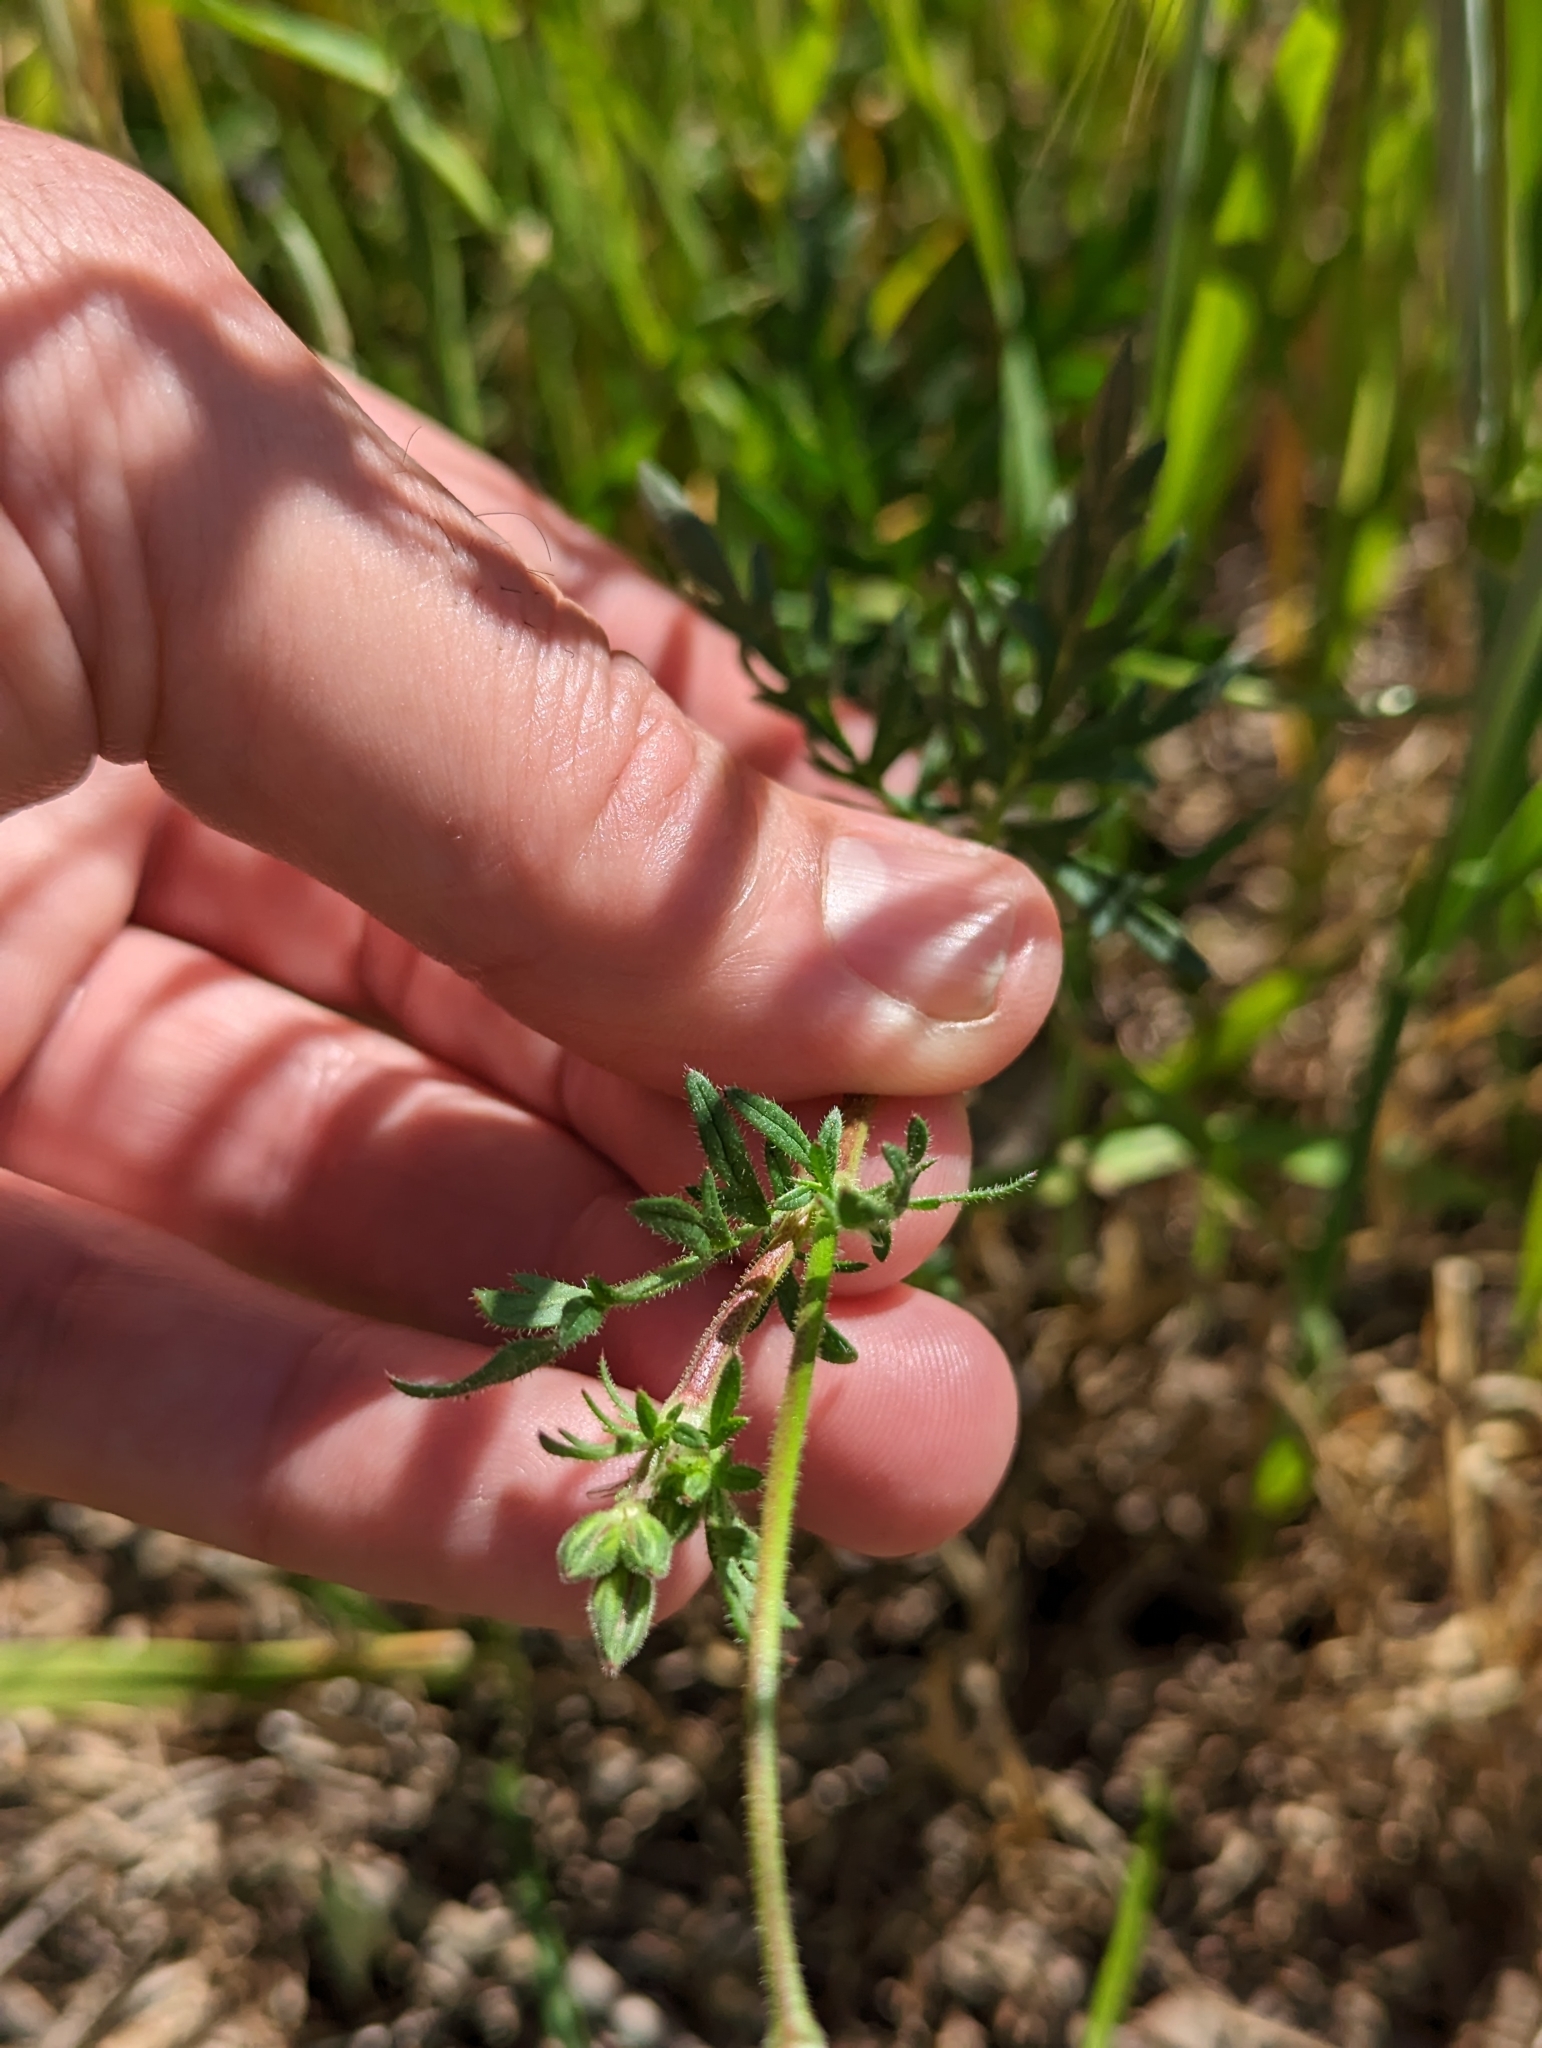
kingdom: Plantae
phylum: Tracheophyta
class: Magnoliopsida
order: Geraniales
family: Geraniaceae
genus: Erodium
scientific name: Erodium botrys
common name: Mediterranean stork's-bill
